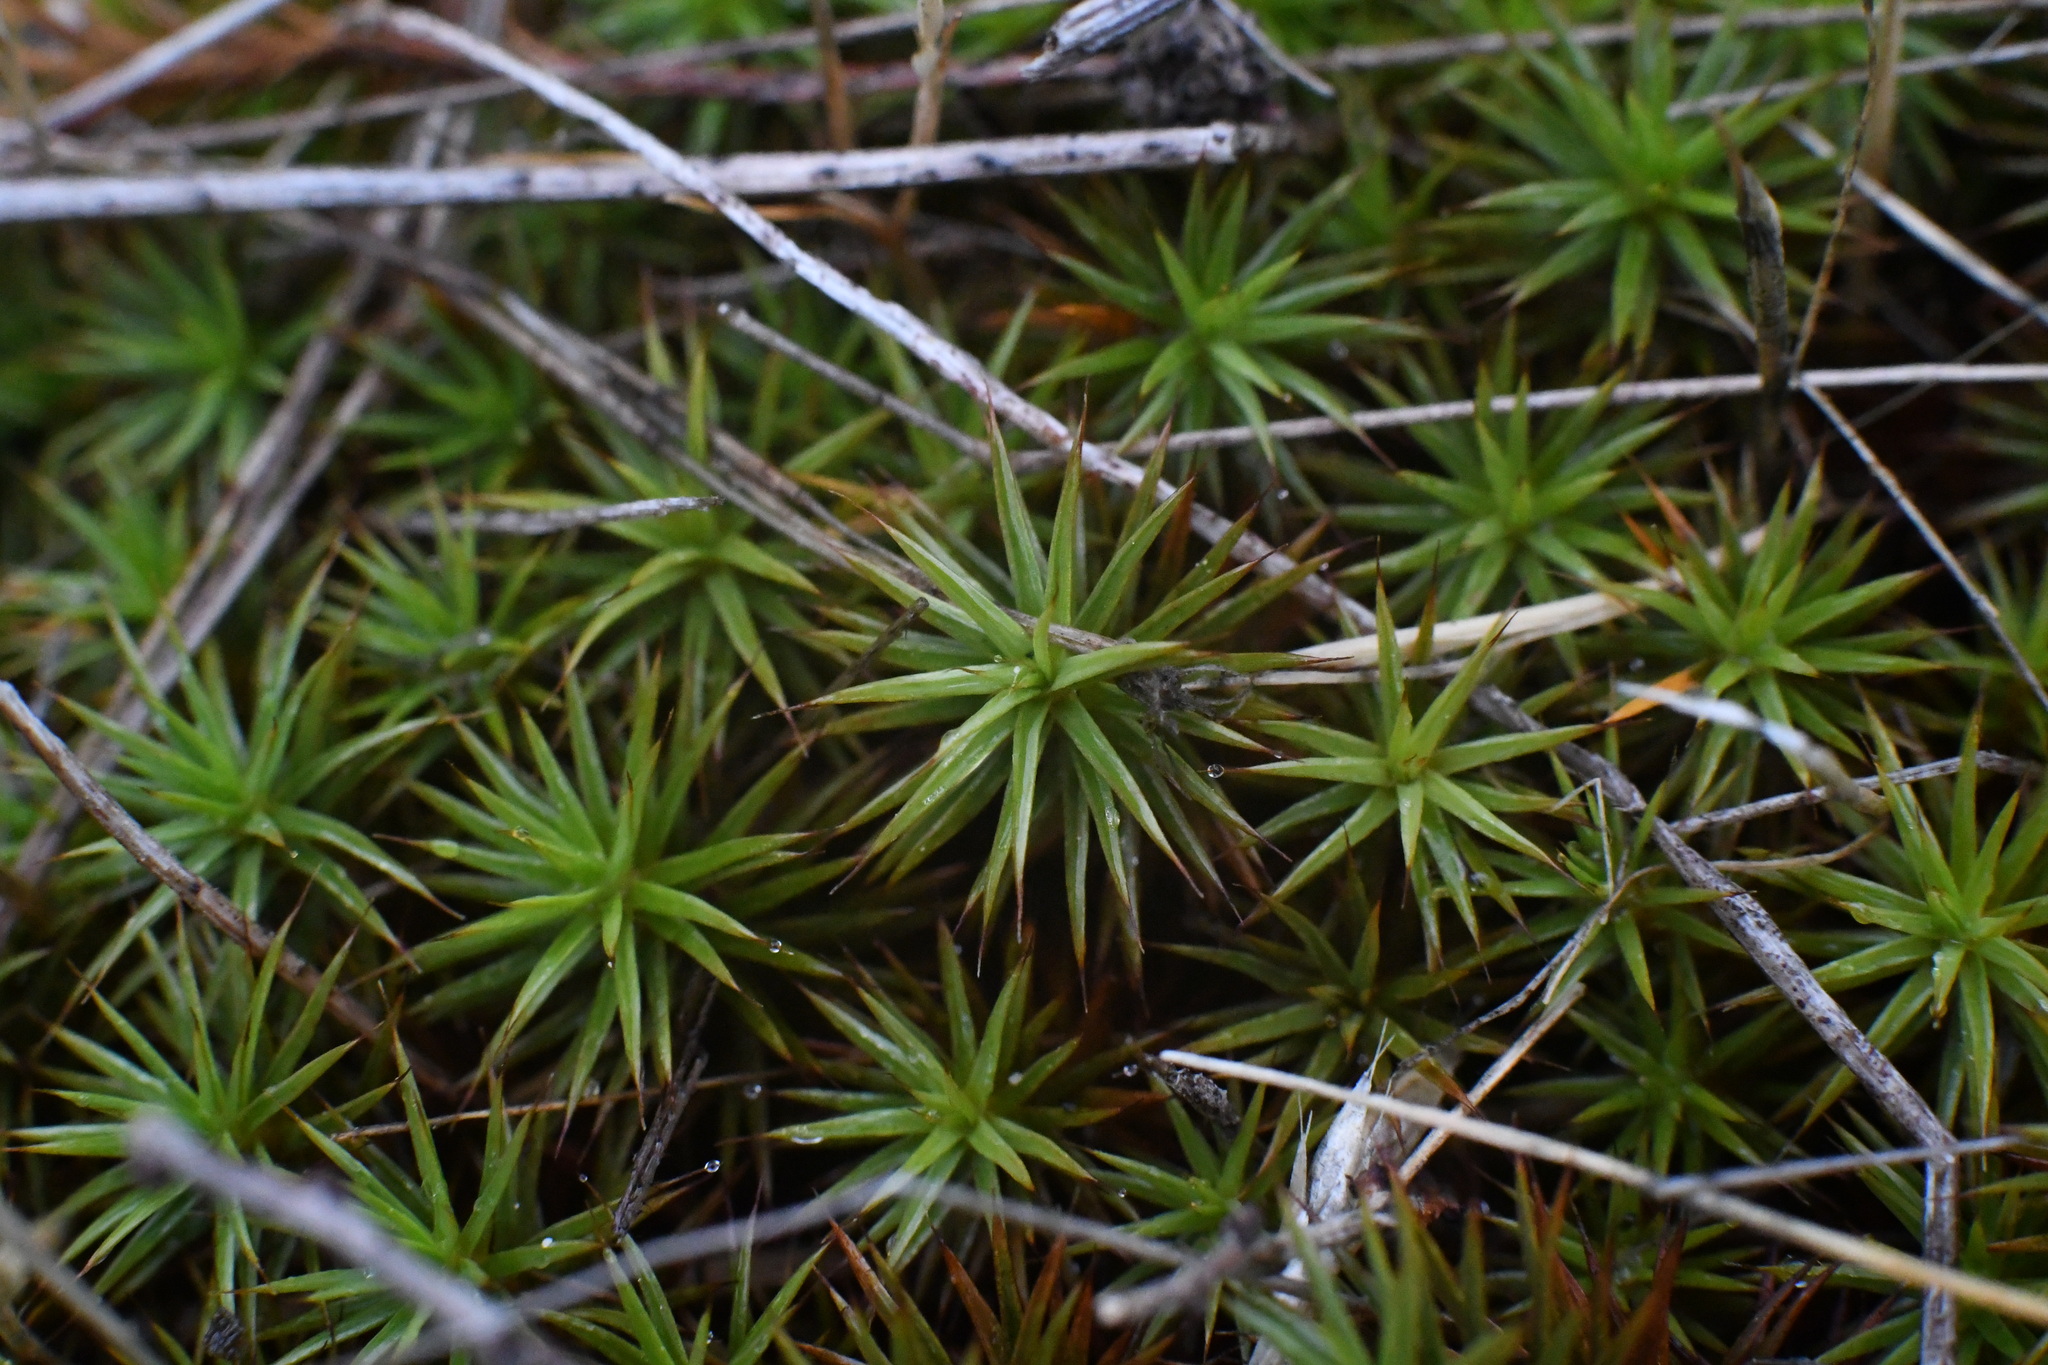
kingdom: Plantae
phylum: Bryophyta
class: Polytrichopsida
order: Polytrichales
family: Polytrichaceae
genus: Polytrichum
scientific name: Polytrichum juniperinum
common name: Juniper haircap moss
